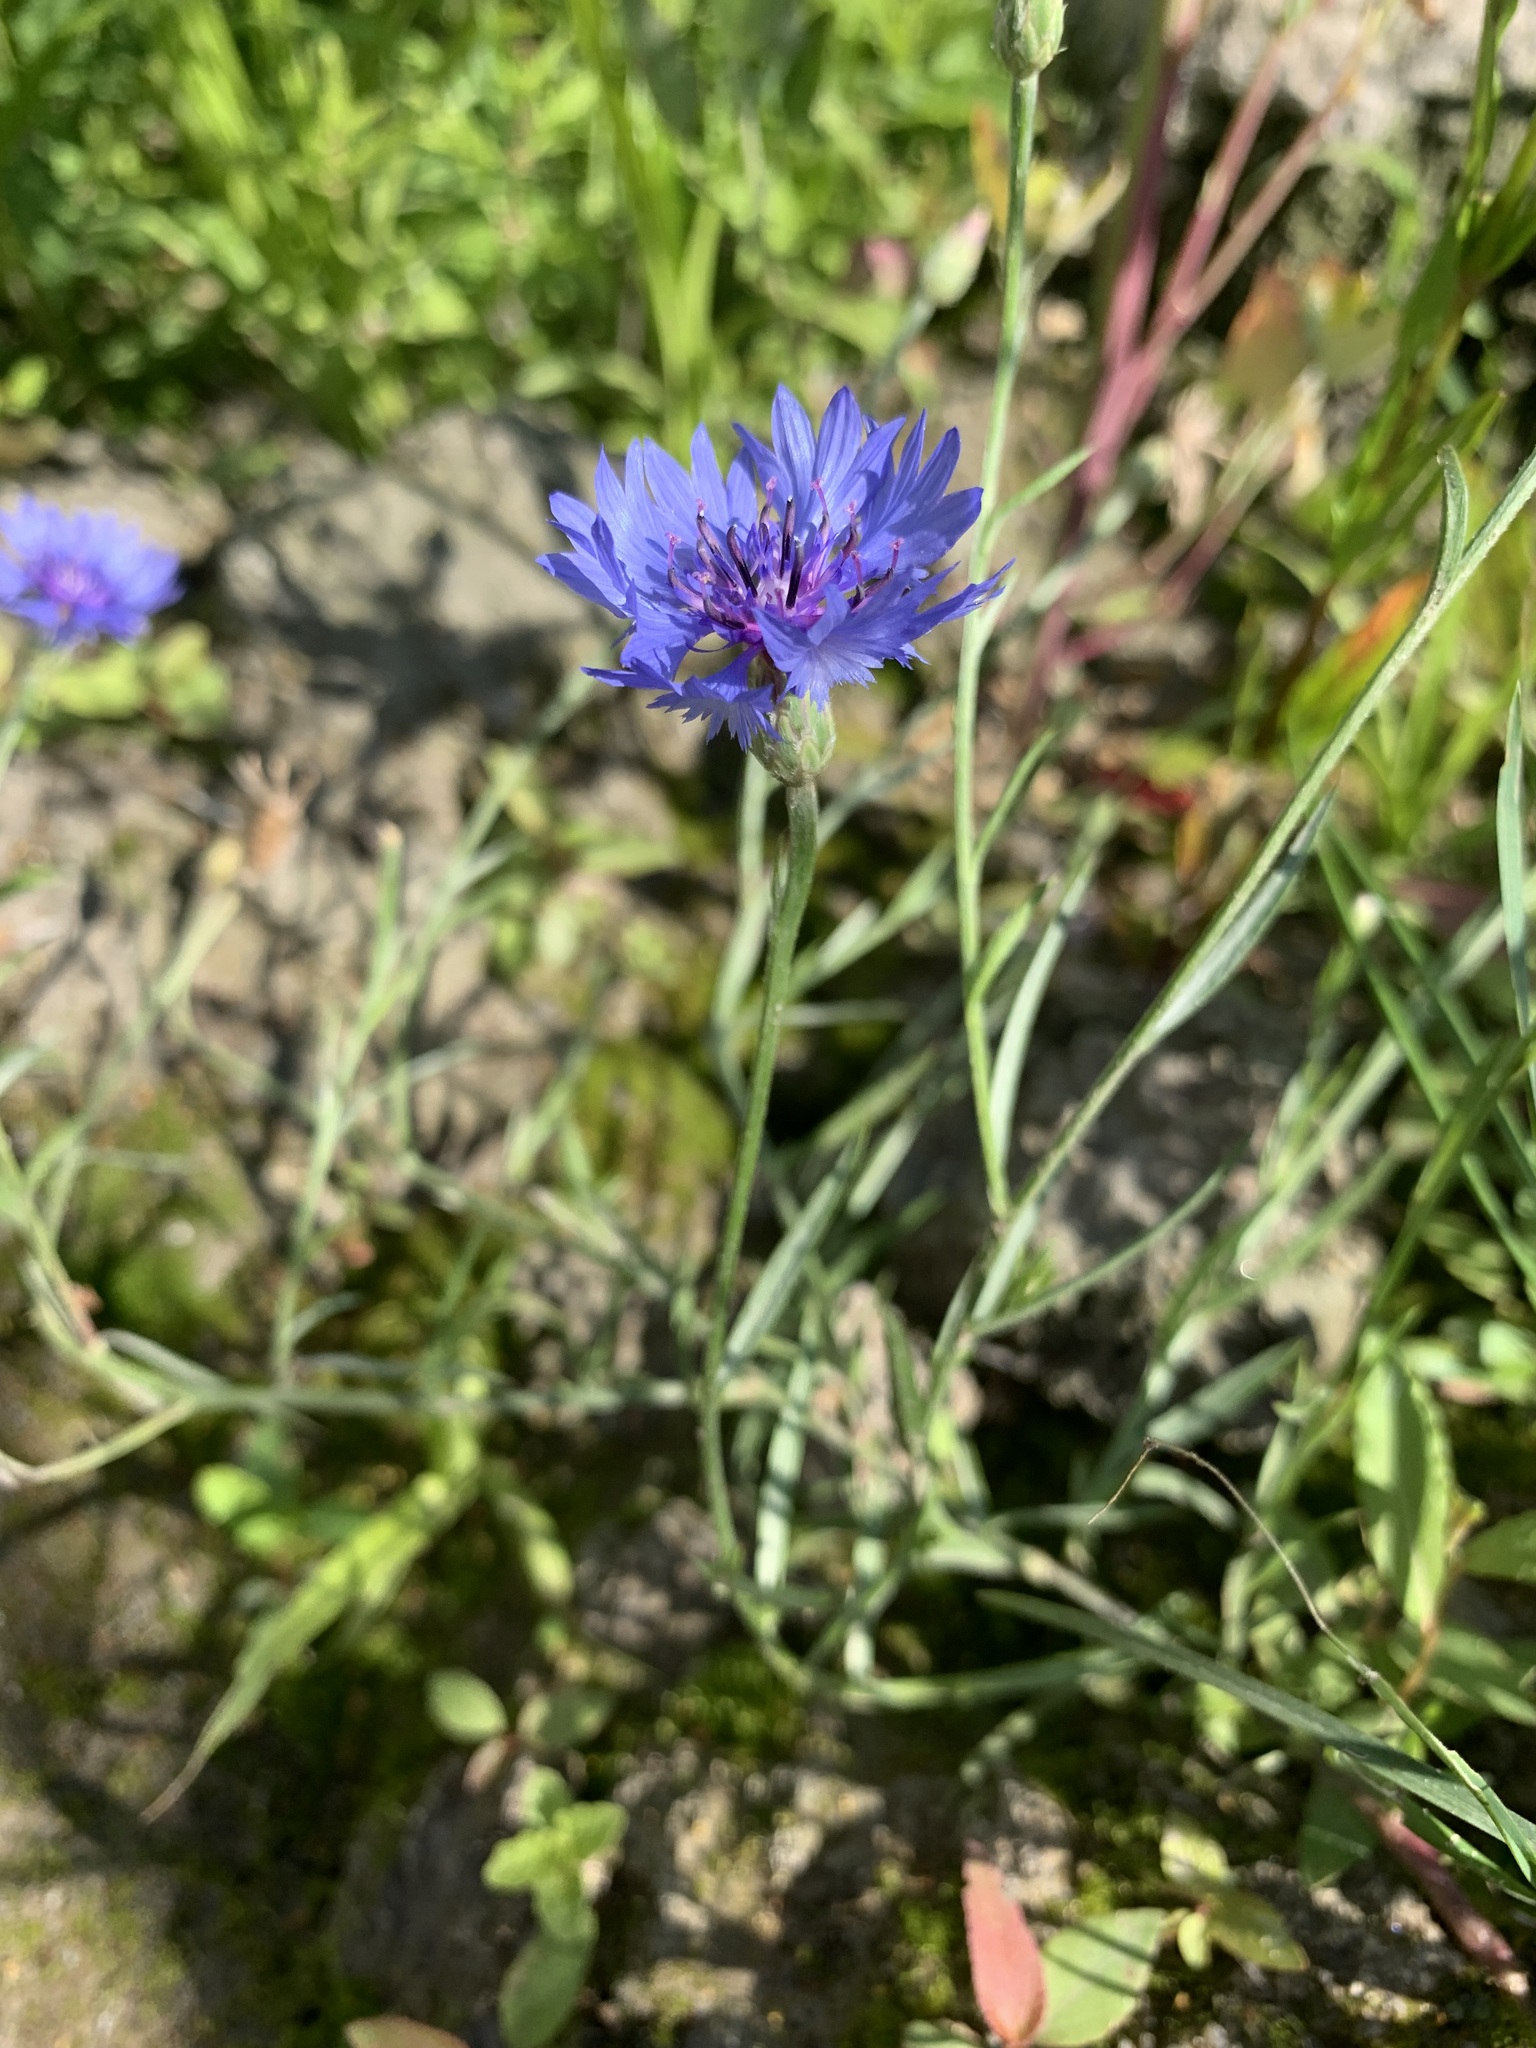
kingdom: Plantae
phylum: Tracheophyta
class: Magnoliopsida
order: Asterales
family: Asteraceae
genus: Centaurea
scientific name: Centaurea cyanus
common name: Cornflower
